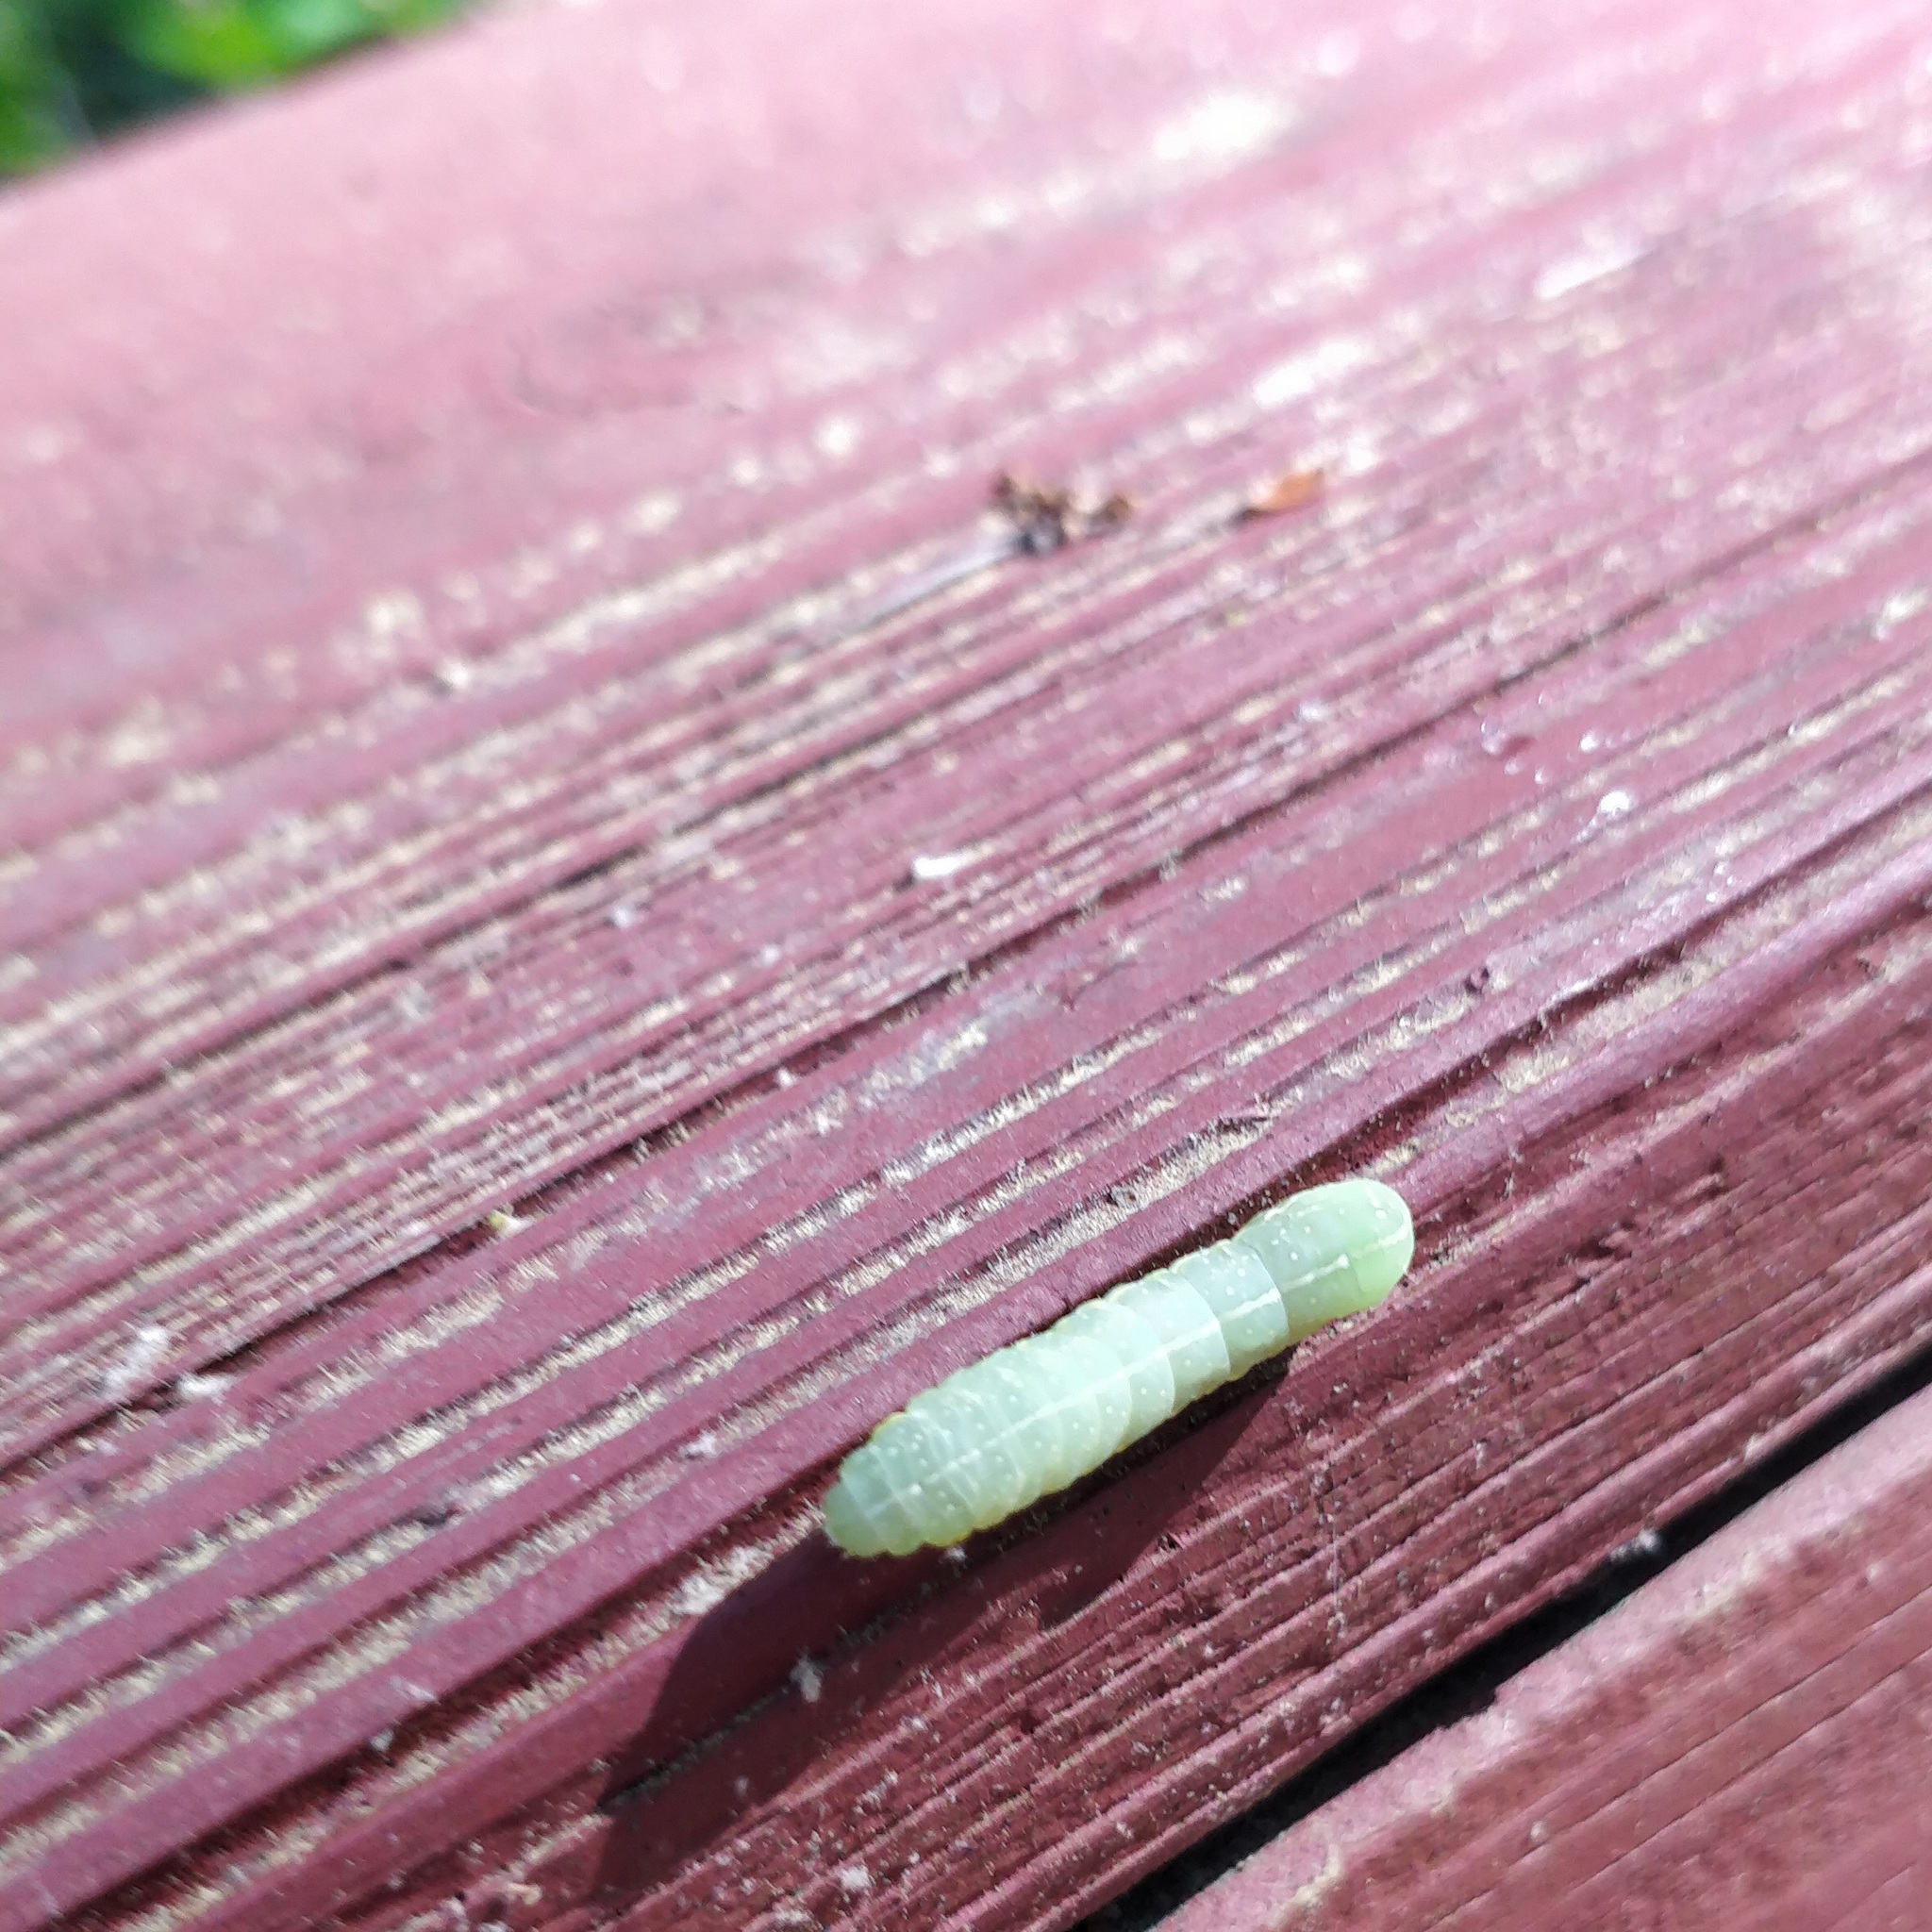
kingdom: Animalia
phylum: Arthropoda
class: Insecta
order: Lepidoptera
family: Noctuidae
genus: Amphipyra
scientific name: Amphipyra pyramidoides
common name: American copper underwing
